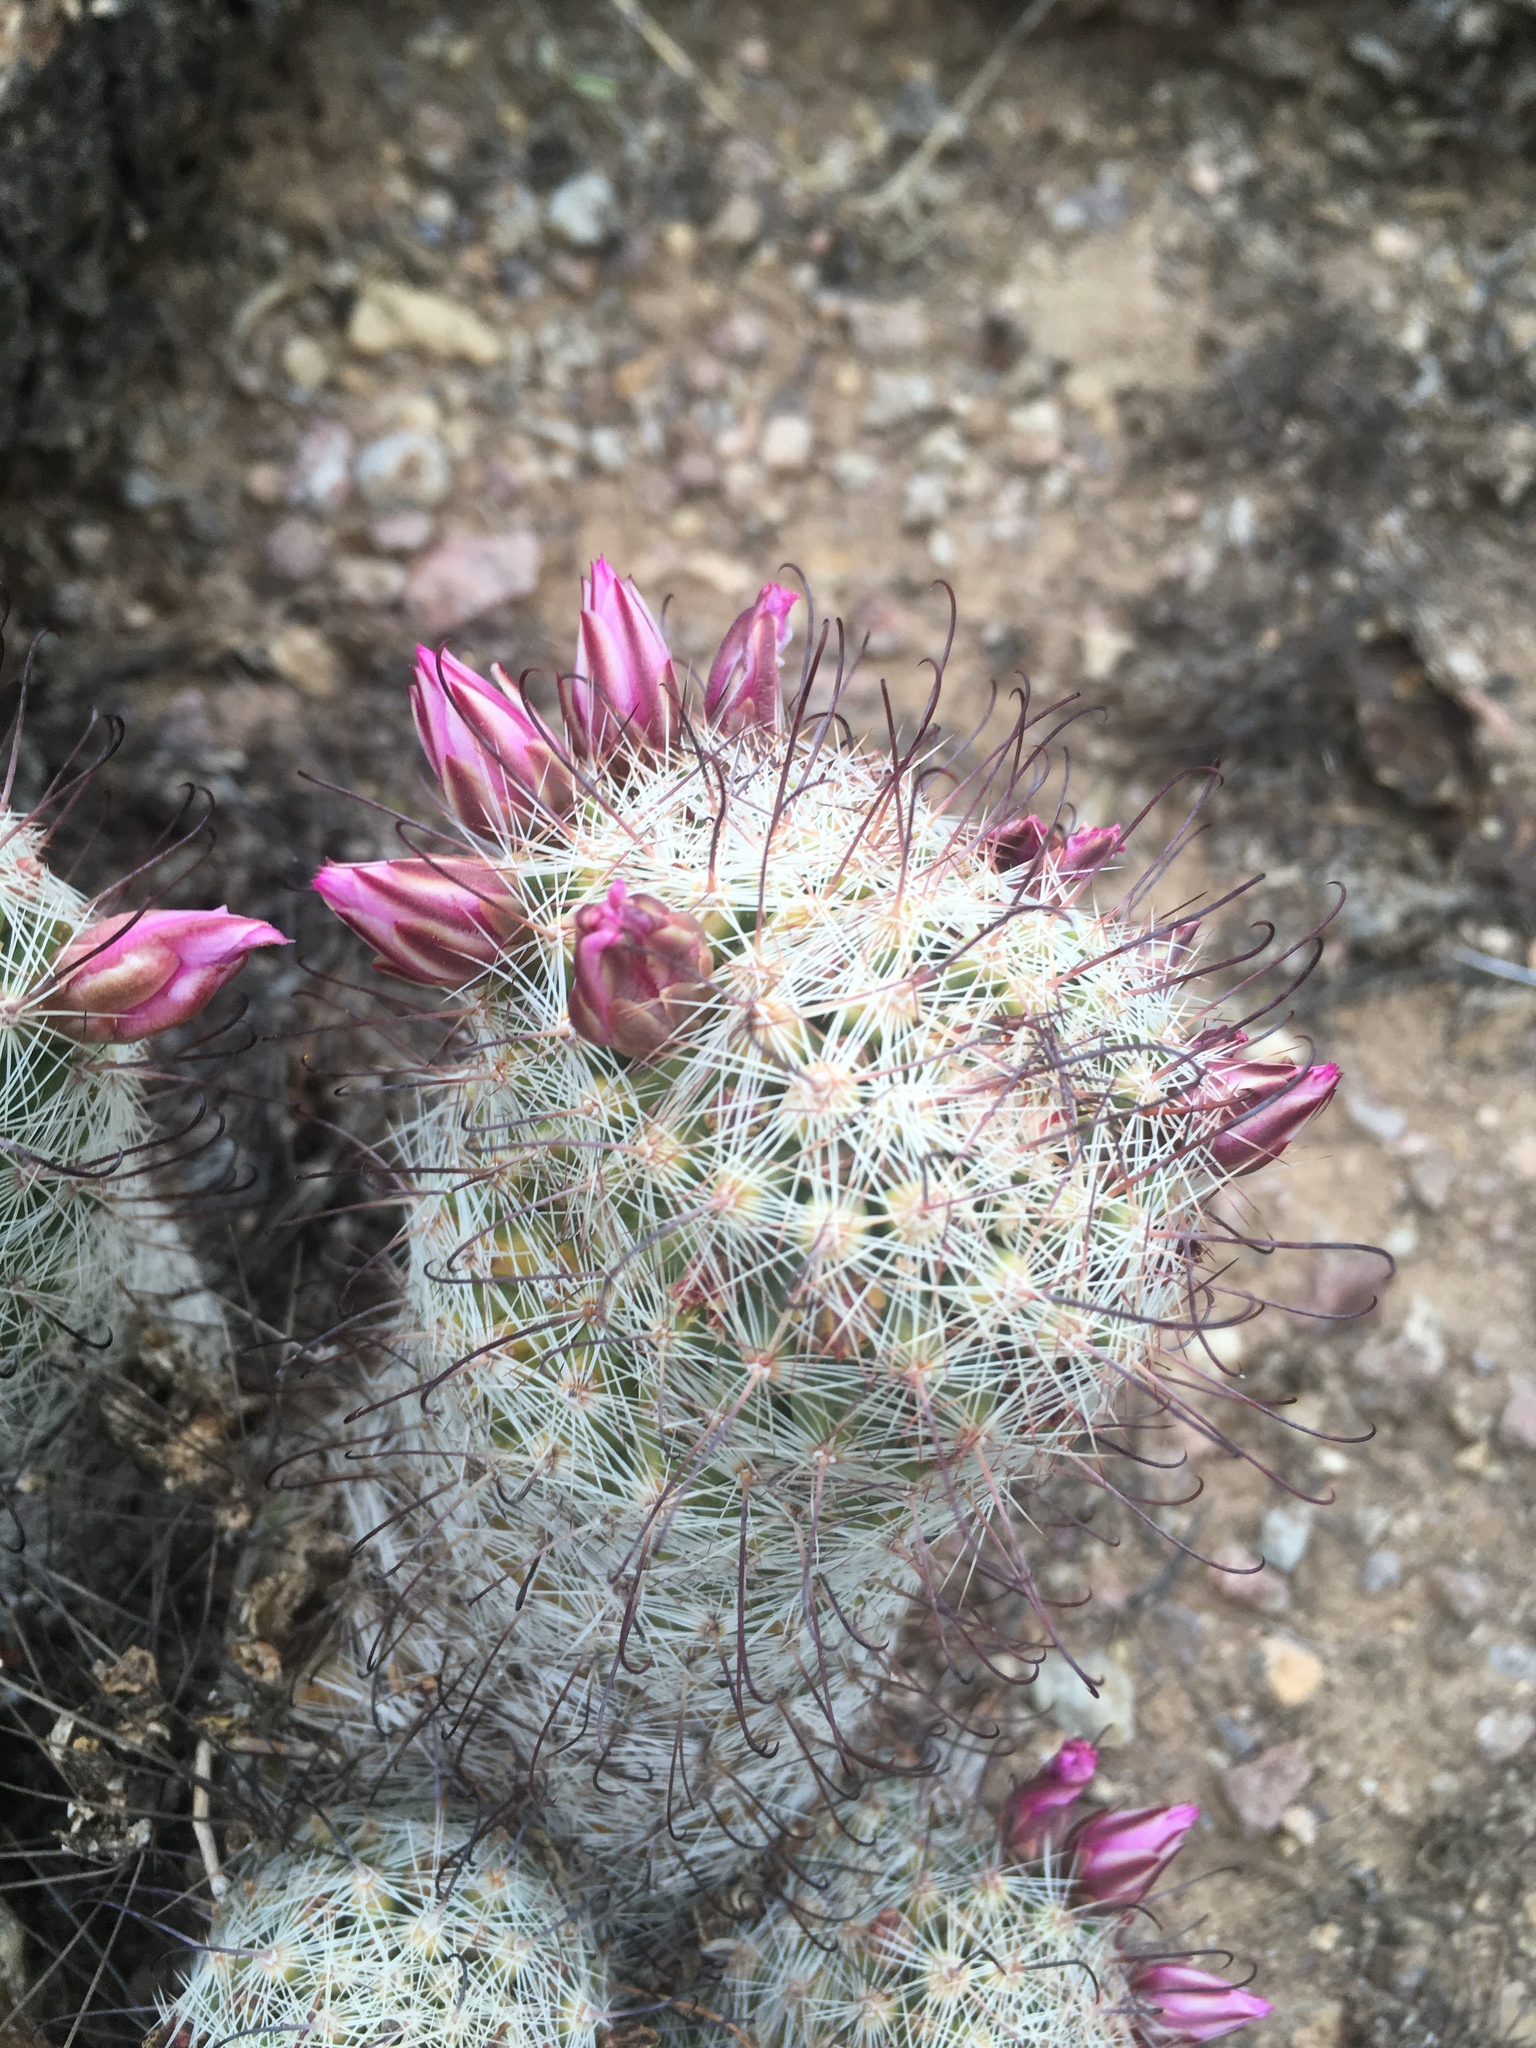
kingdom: Plantae
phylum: Tracheophyta
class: Magnoliopsida
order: Caryophyllales
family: Cactaceae
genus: Cochemiea
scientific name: Cochemiea grahamii
